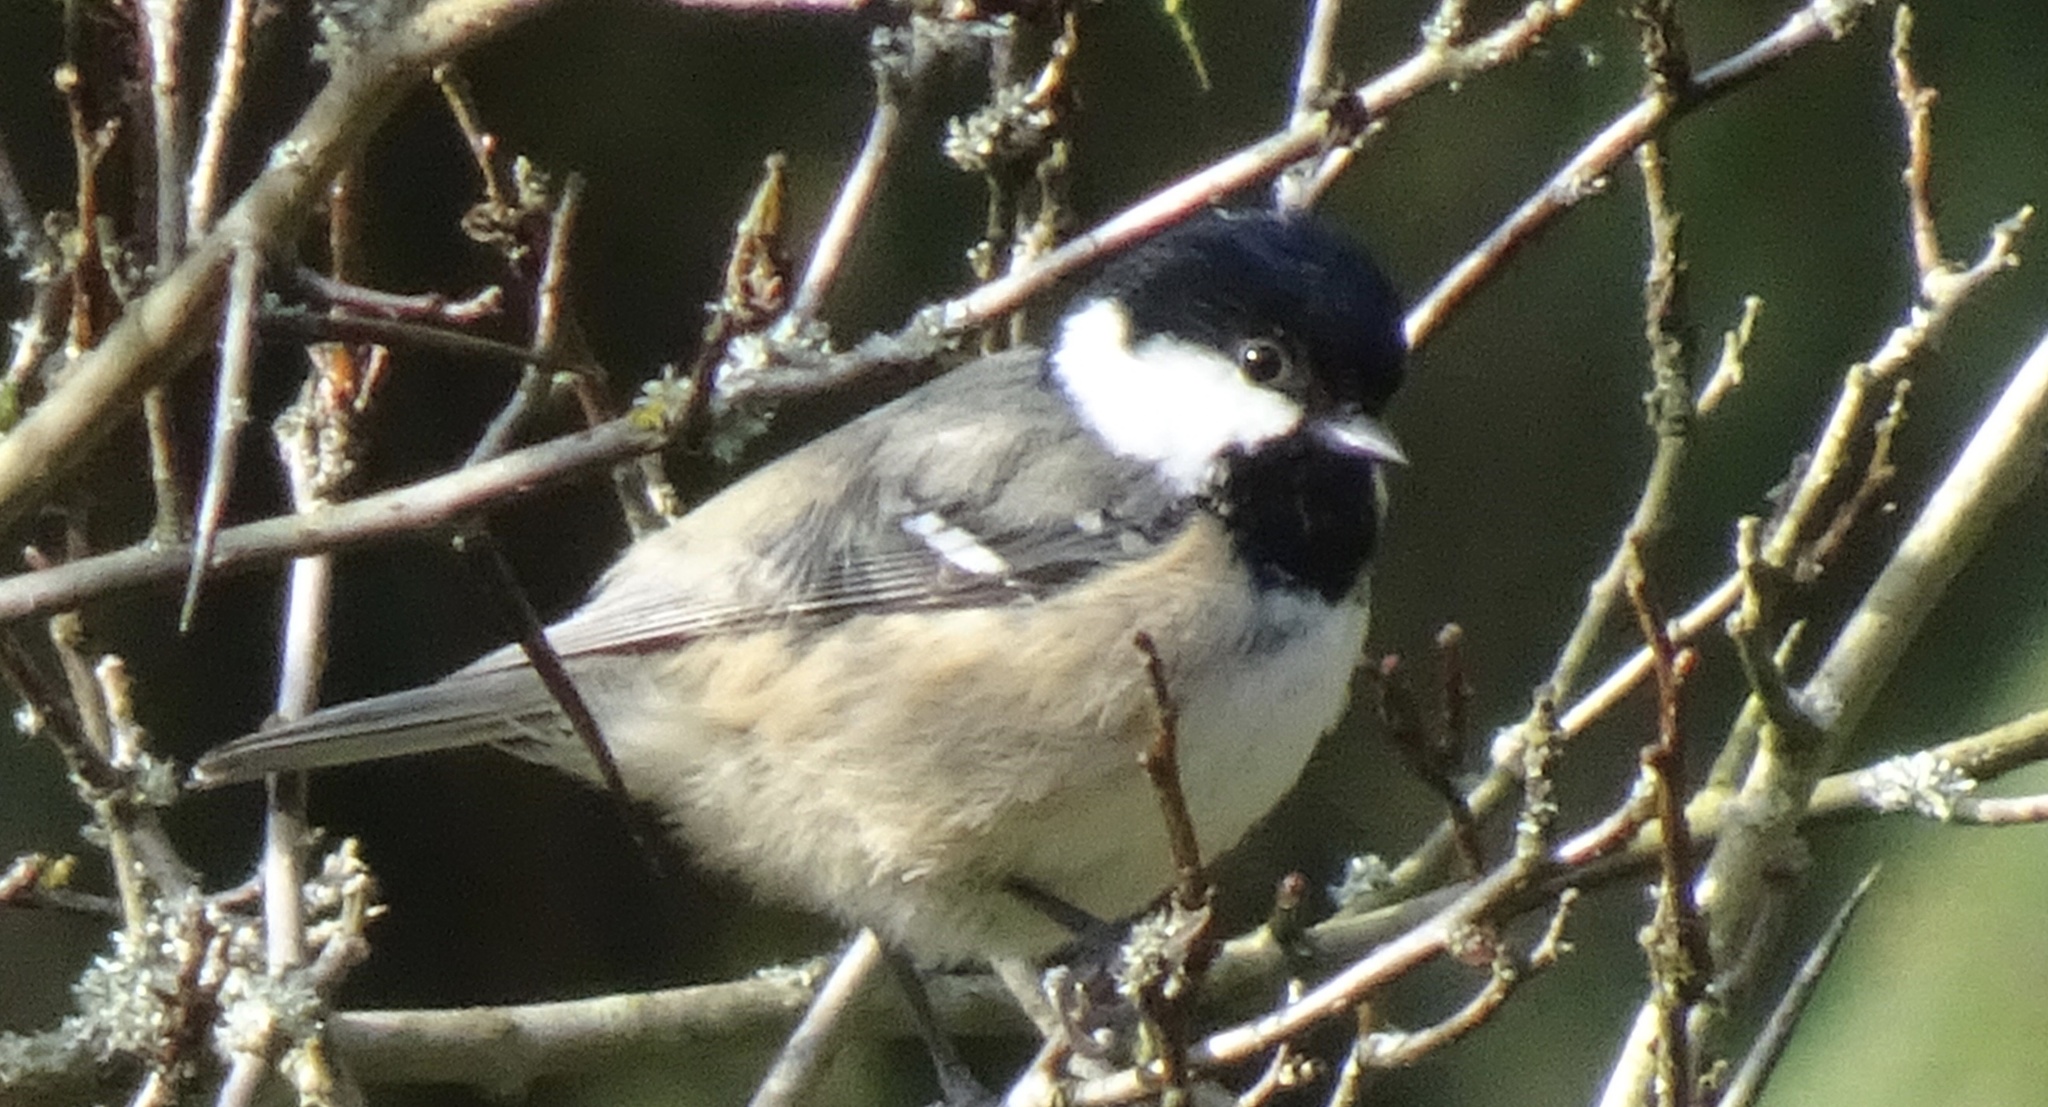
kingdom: Animalia
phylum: Chordata
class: Aves
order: Passeriformes
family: Paridae
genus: Periparus
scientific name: Periparus ater
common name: Coal tit
